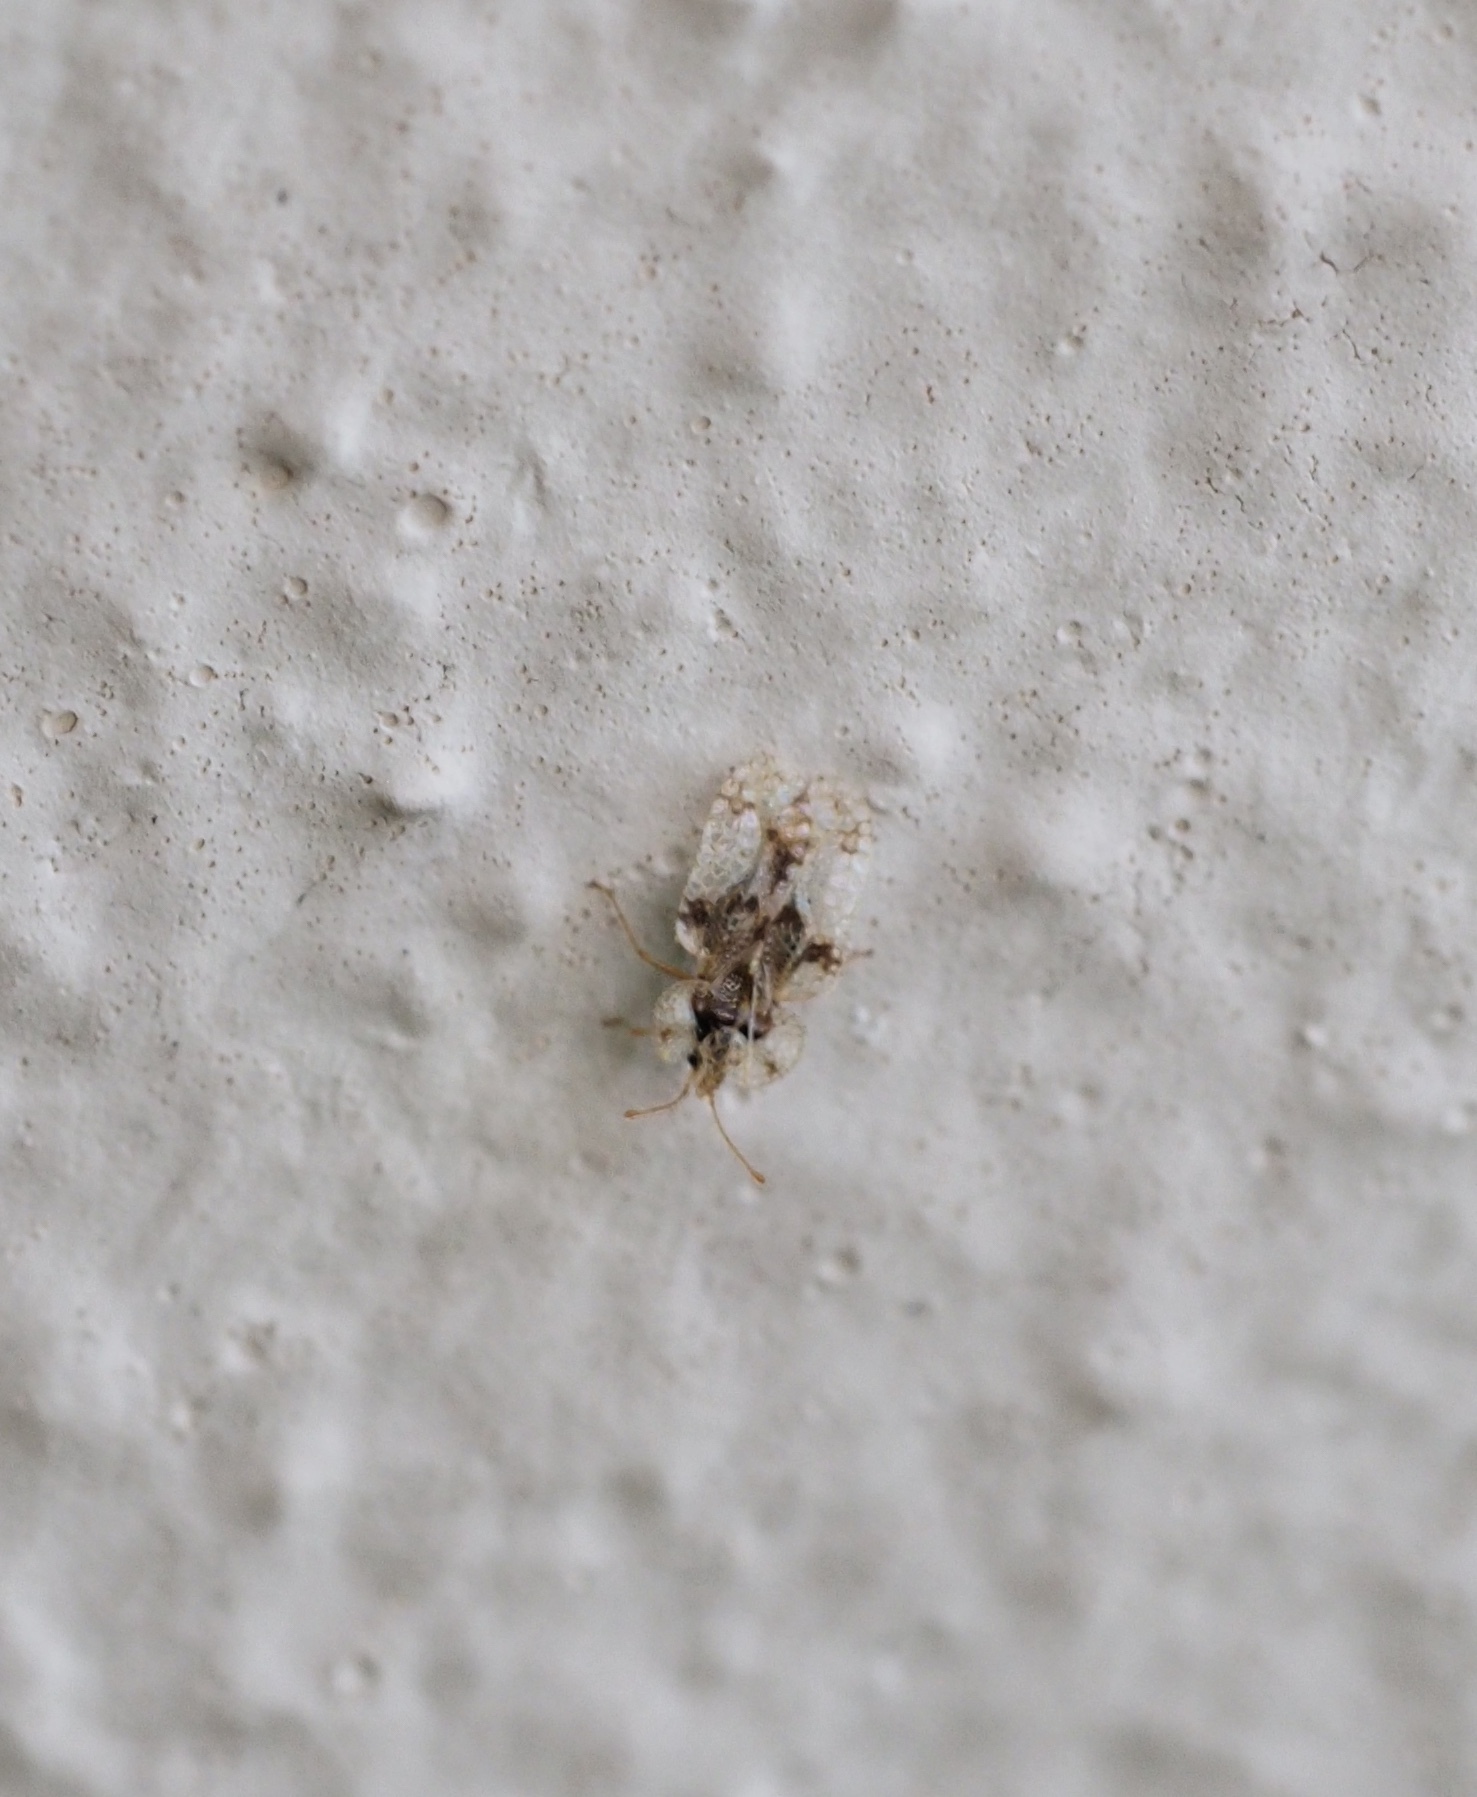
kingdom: Animalia
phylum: Arthropoda
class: Insecta
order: Hemiptera
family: Tingidae
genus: Corythucha
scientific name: Corythucha arcuata
